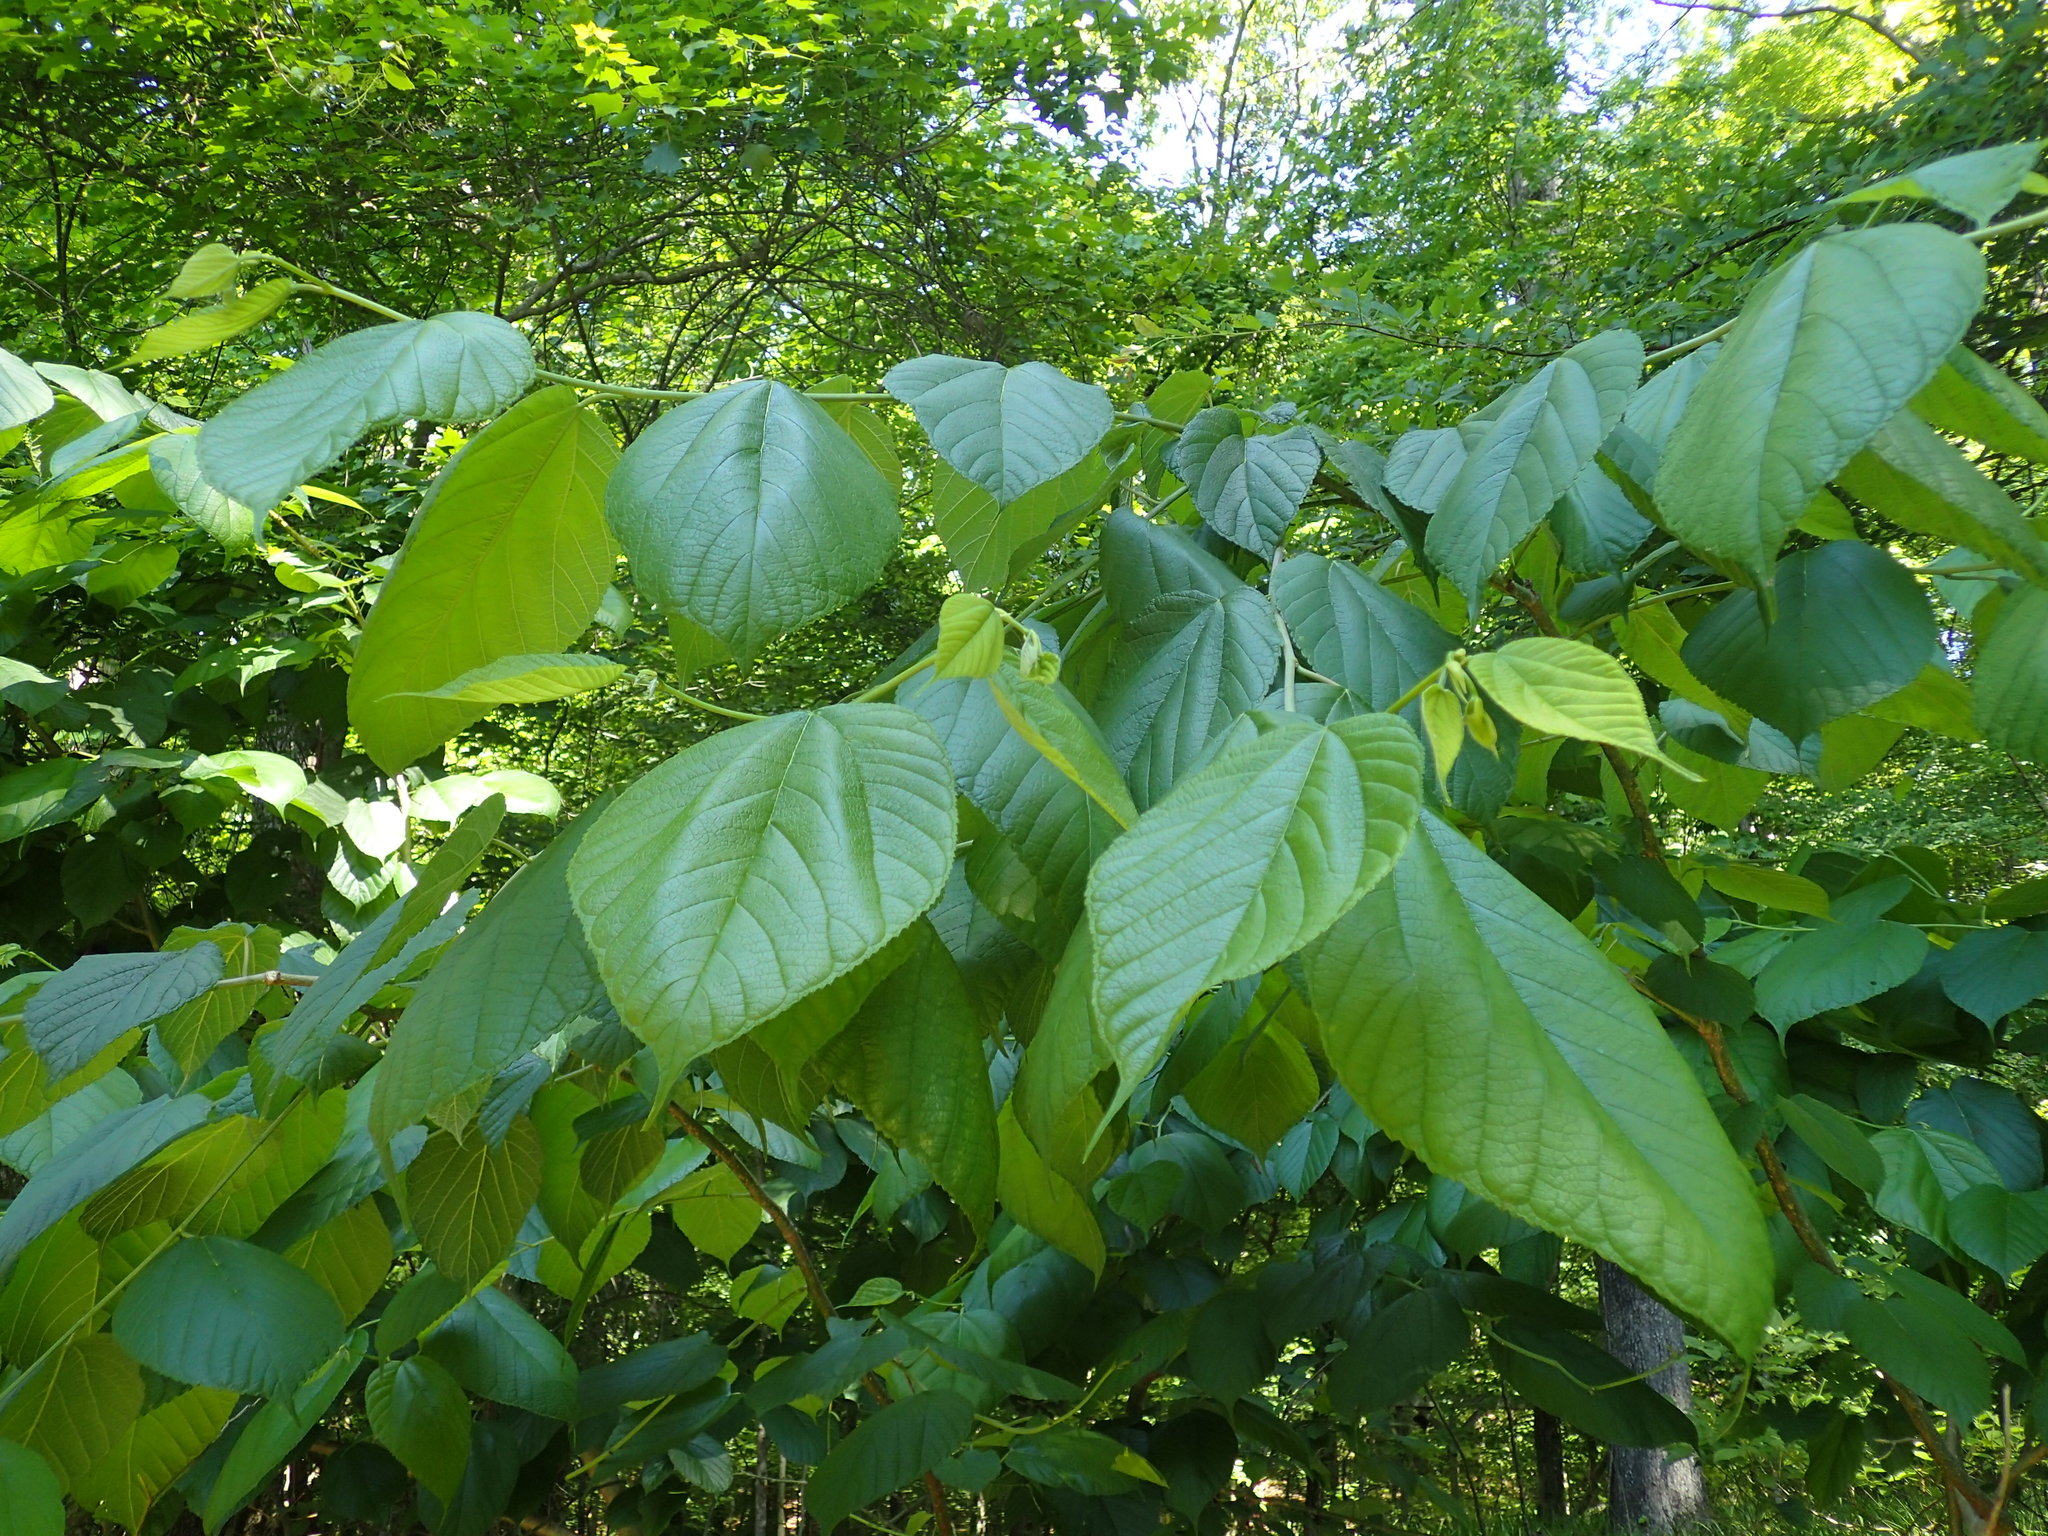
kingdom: Plantae
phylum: Tracheophyta
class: Magnoliopsida
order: Rosales
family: Moraceae
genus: Morus
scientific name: Morus rubra
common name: Red mulberry
